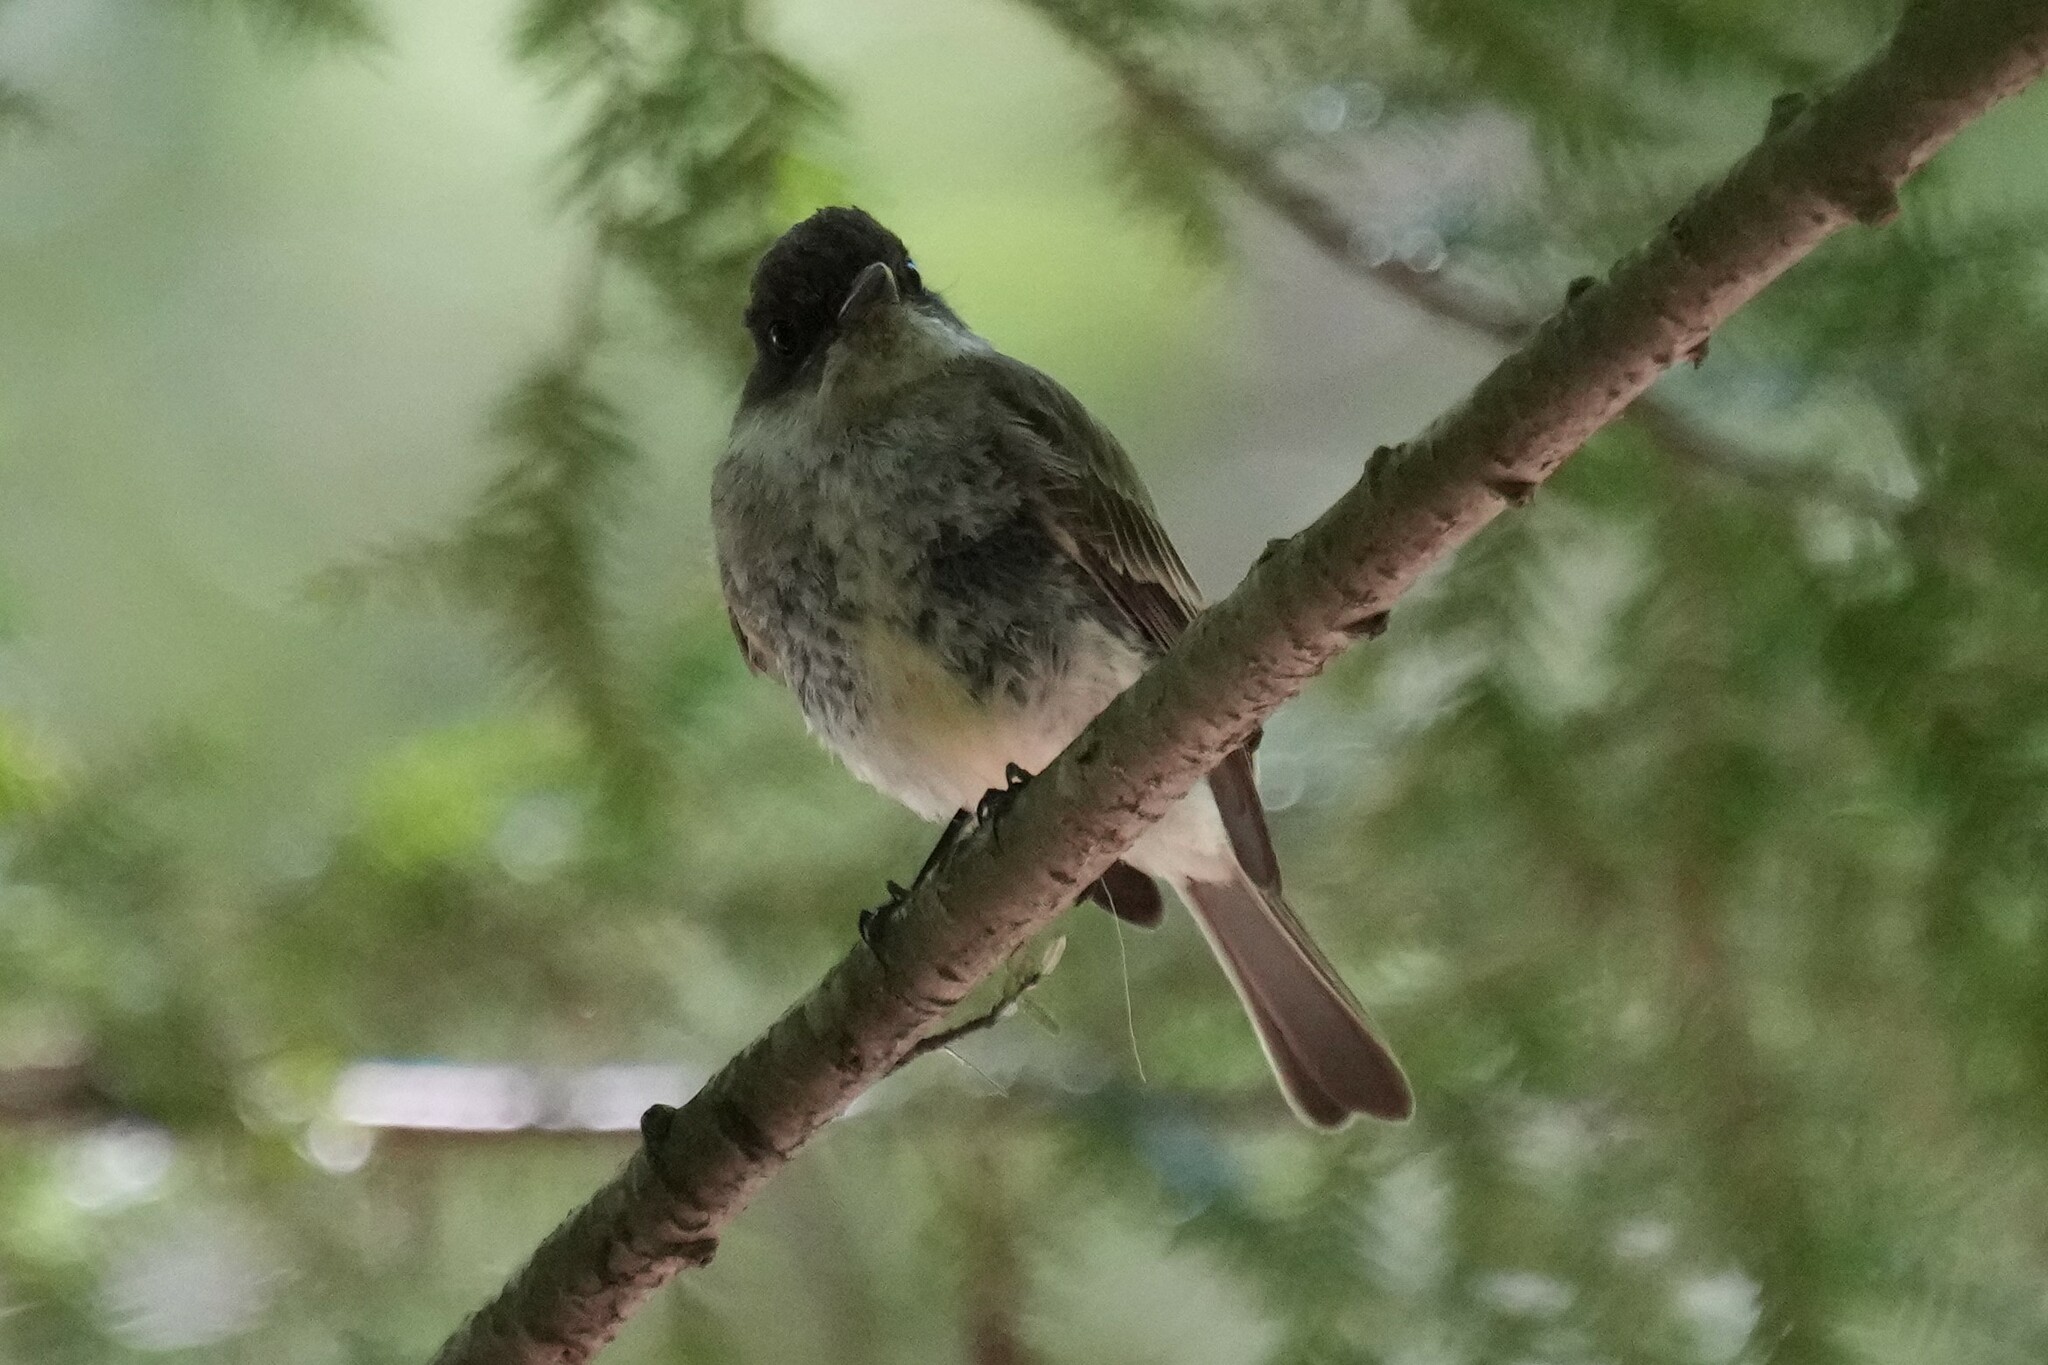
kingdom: Animalia
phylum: Chordata
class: Aves
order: Passeriformes
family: Tyrannidae
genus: Sayornis
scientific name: Sayornis phoebe
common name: Eastern phoebe
